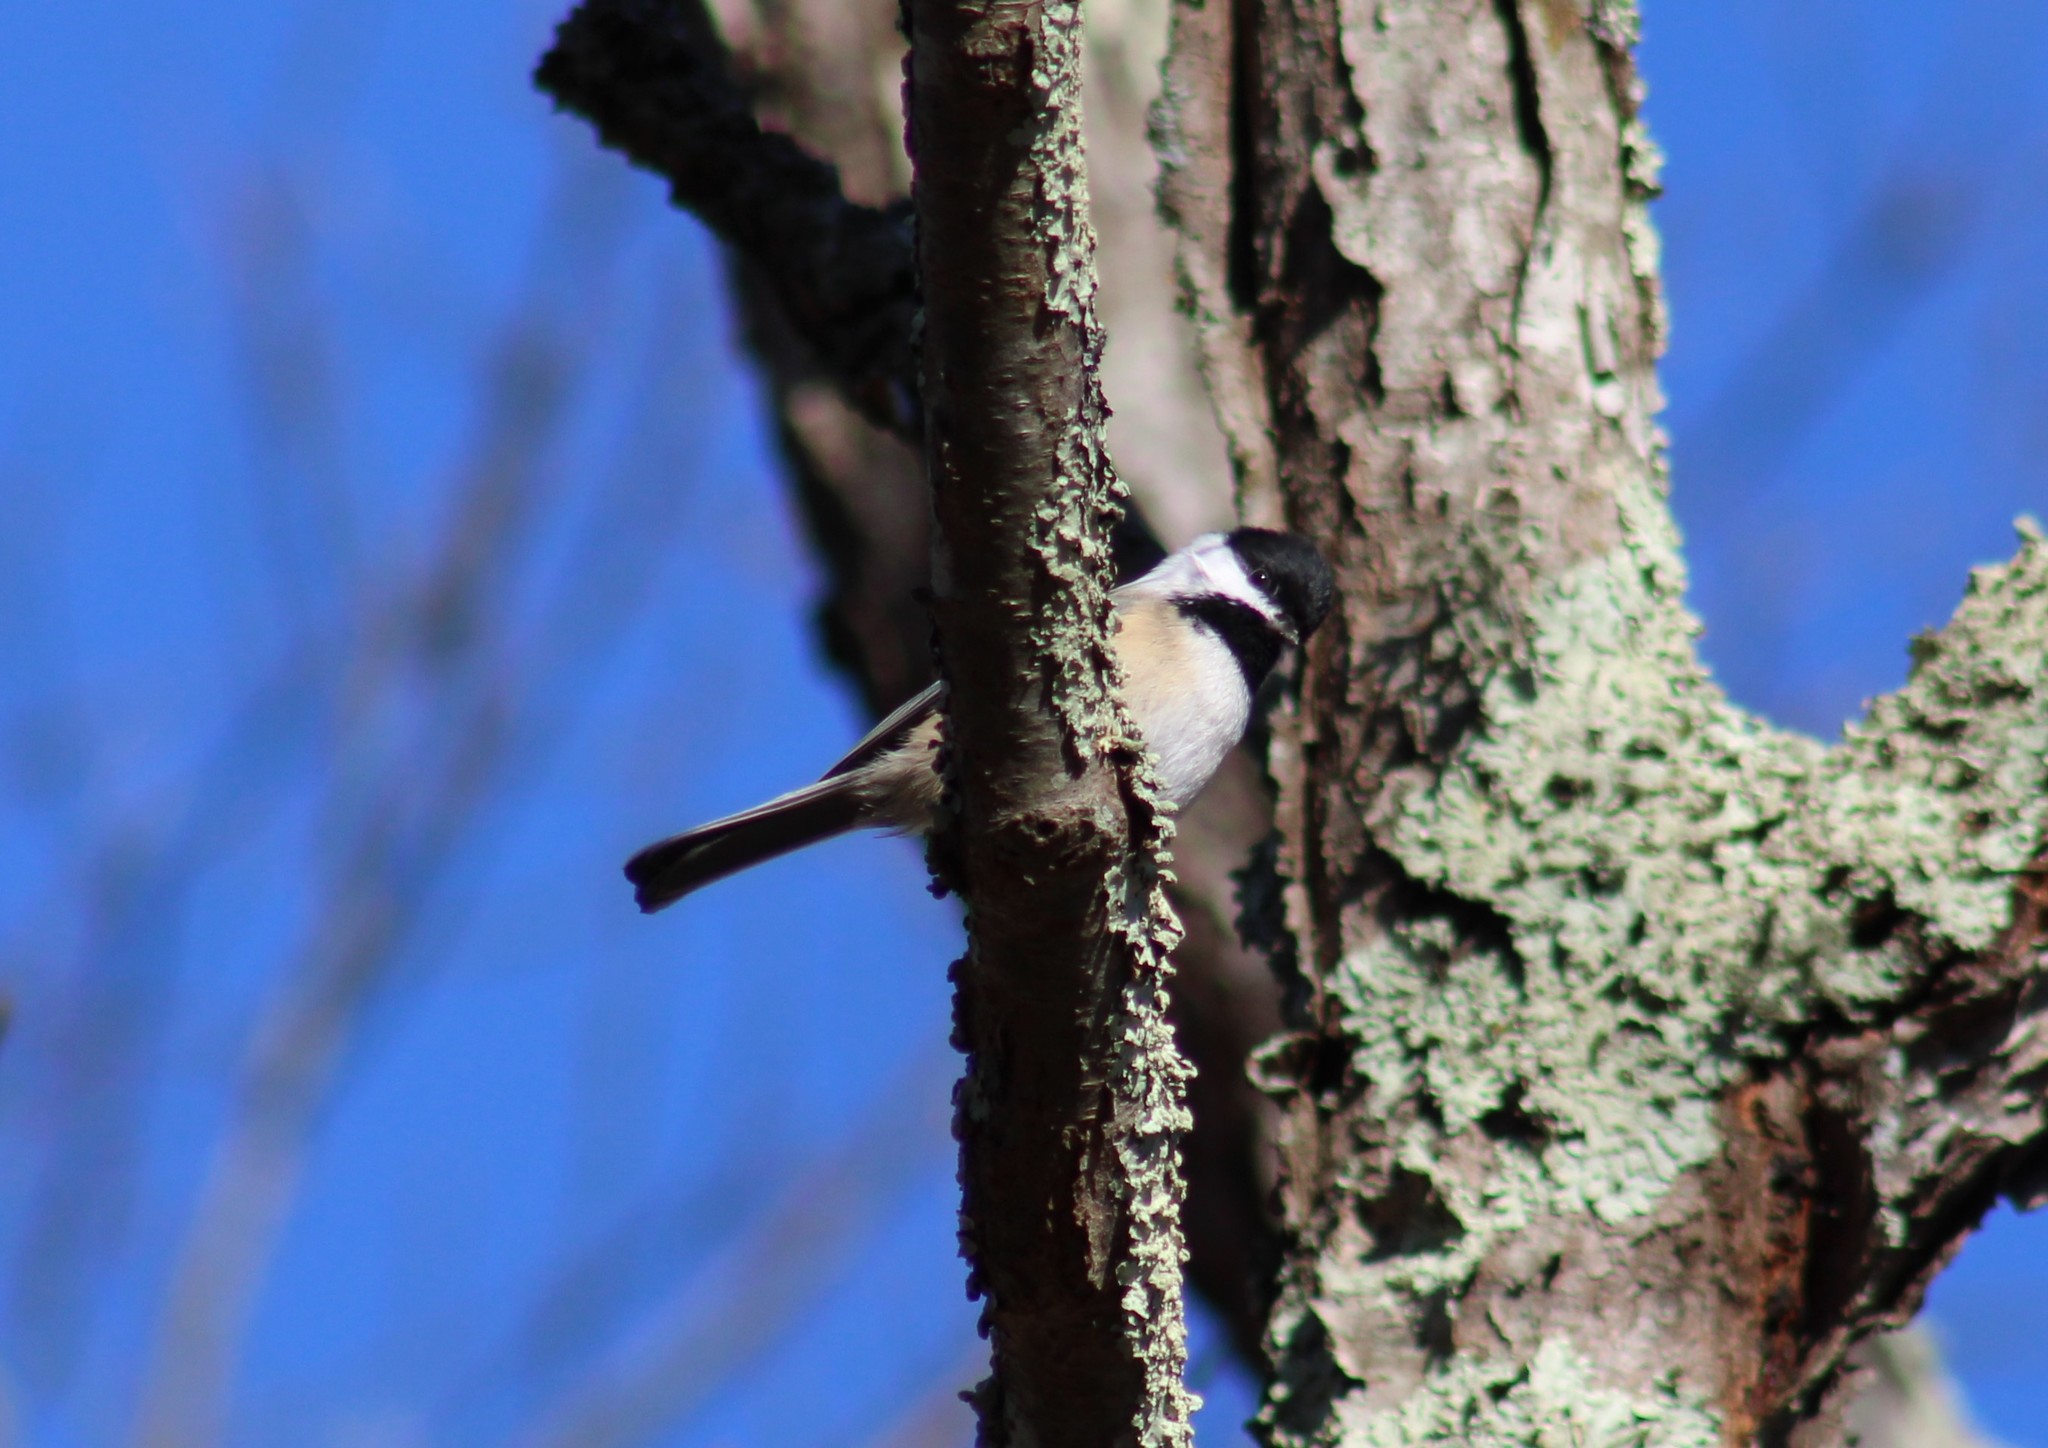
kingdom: Animalia
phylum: Chordata
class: Aves
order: Passeriformes
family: Paridae
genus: Poecile
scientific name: Poecile atricapillus
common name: Black-capped chickadee
